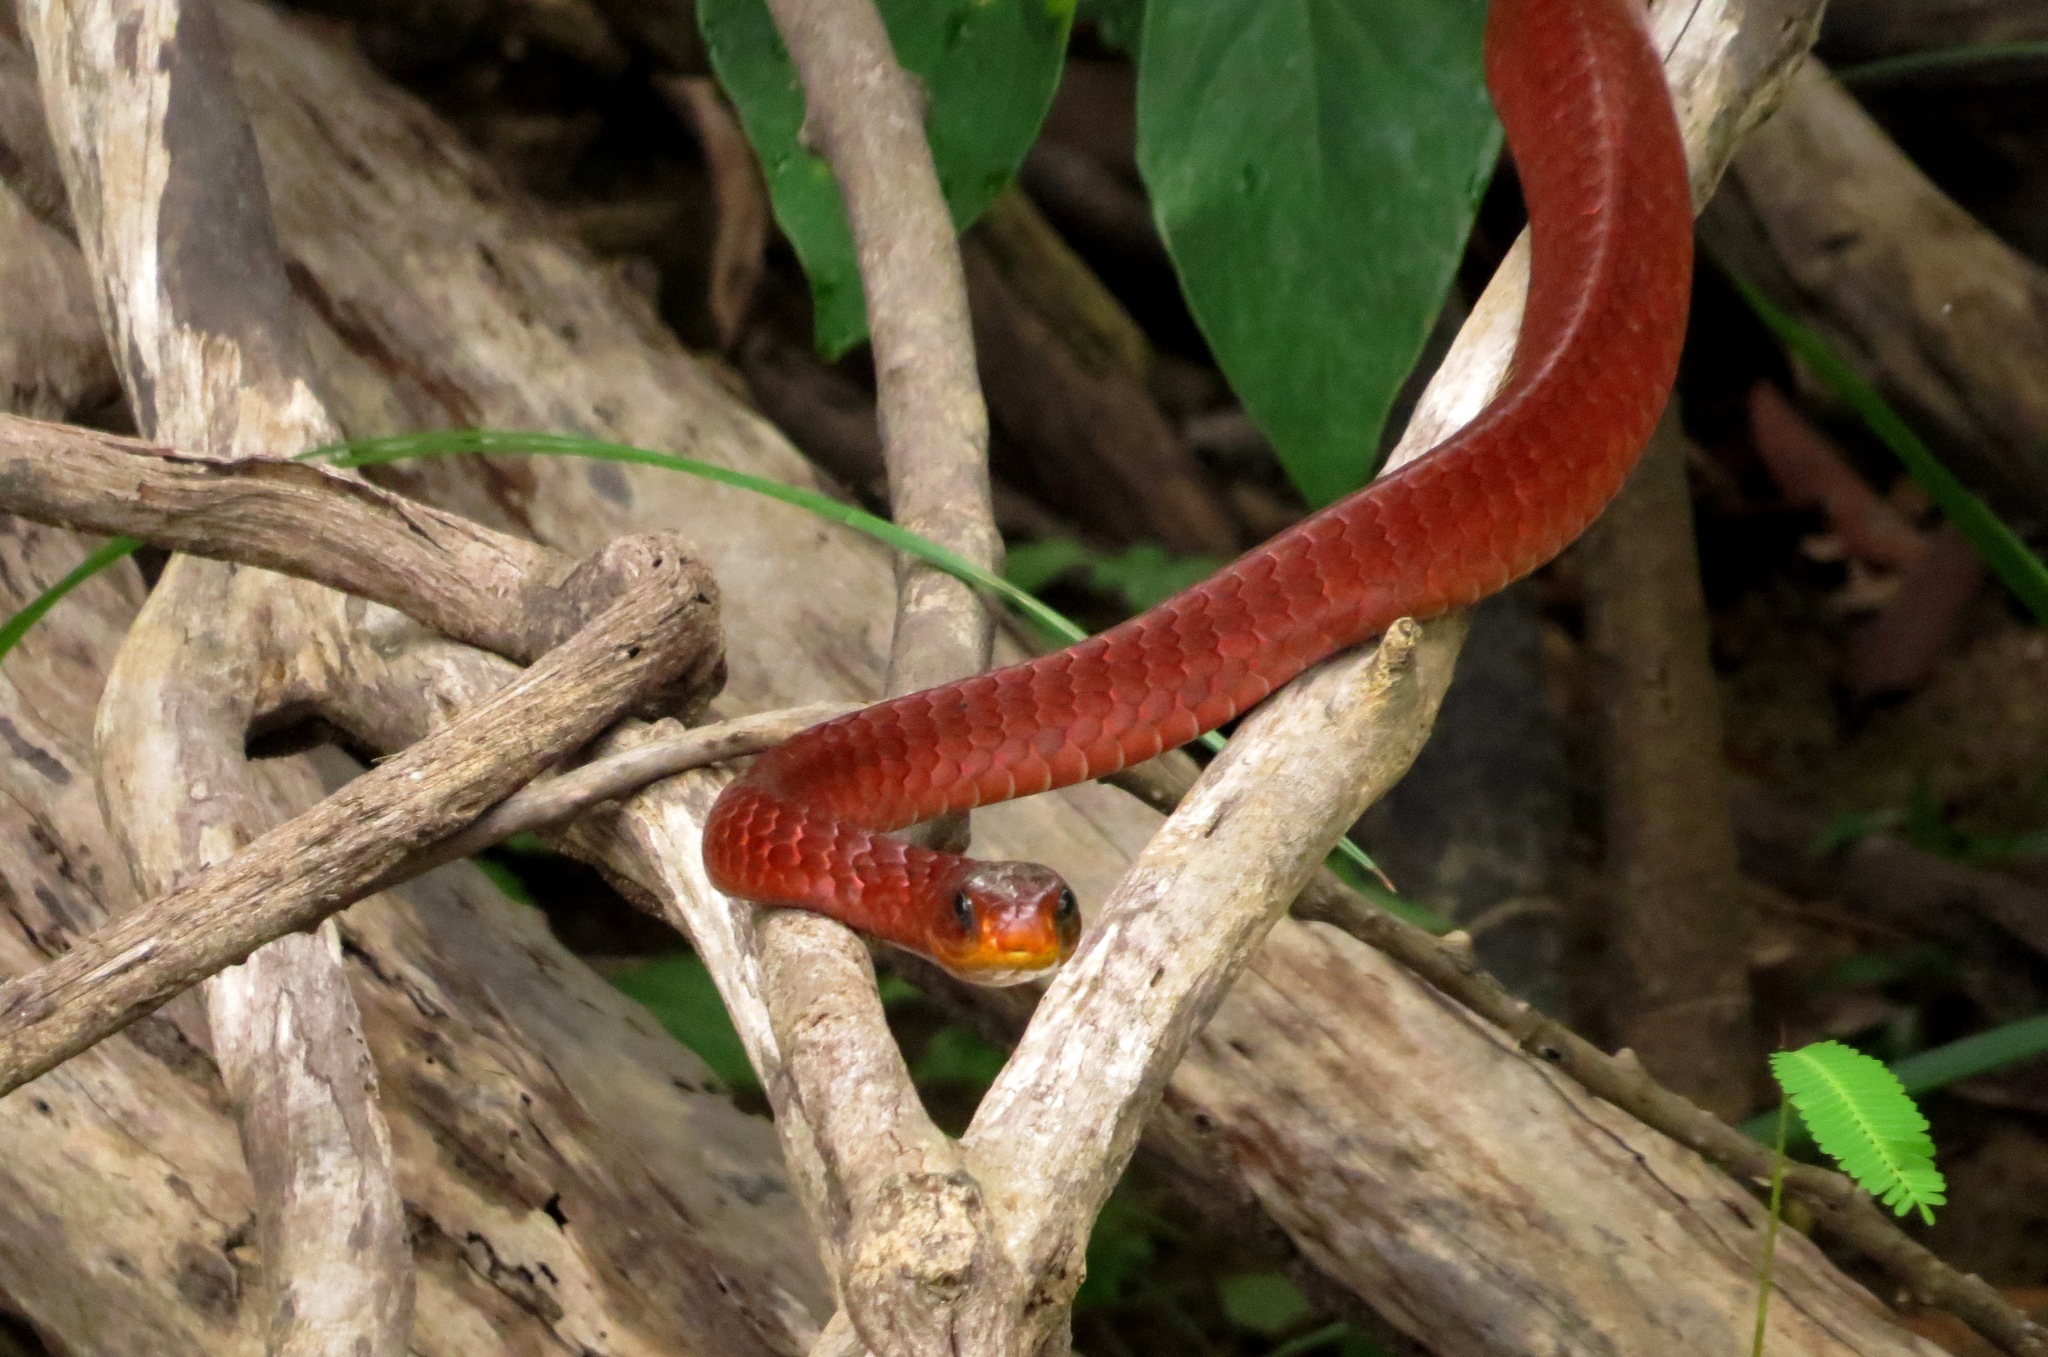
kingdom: Animalia
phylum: Chordata
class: Squamata
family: Colubridae
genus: Chironius
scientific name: Chironius scurrulus
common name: Wagler's sipo
